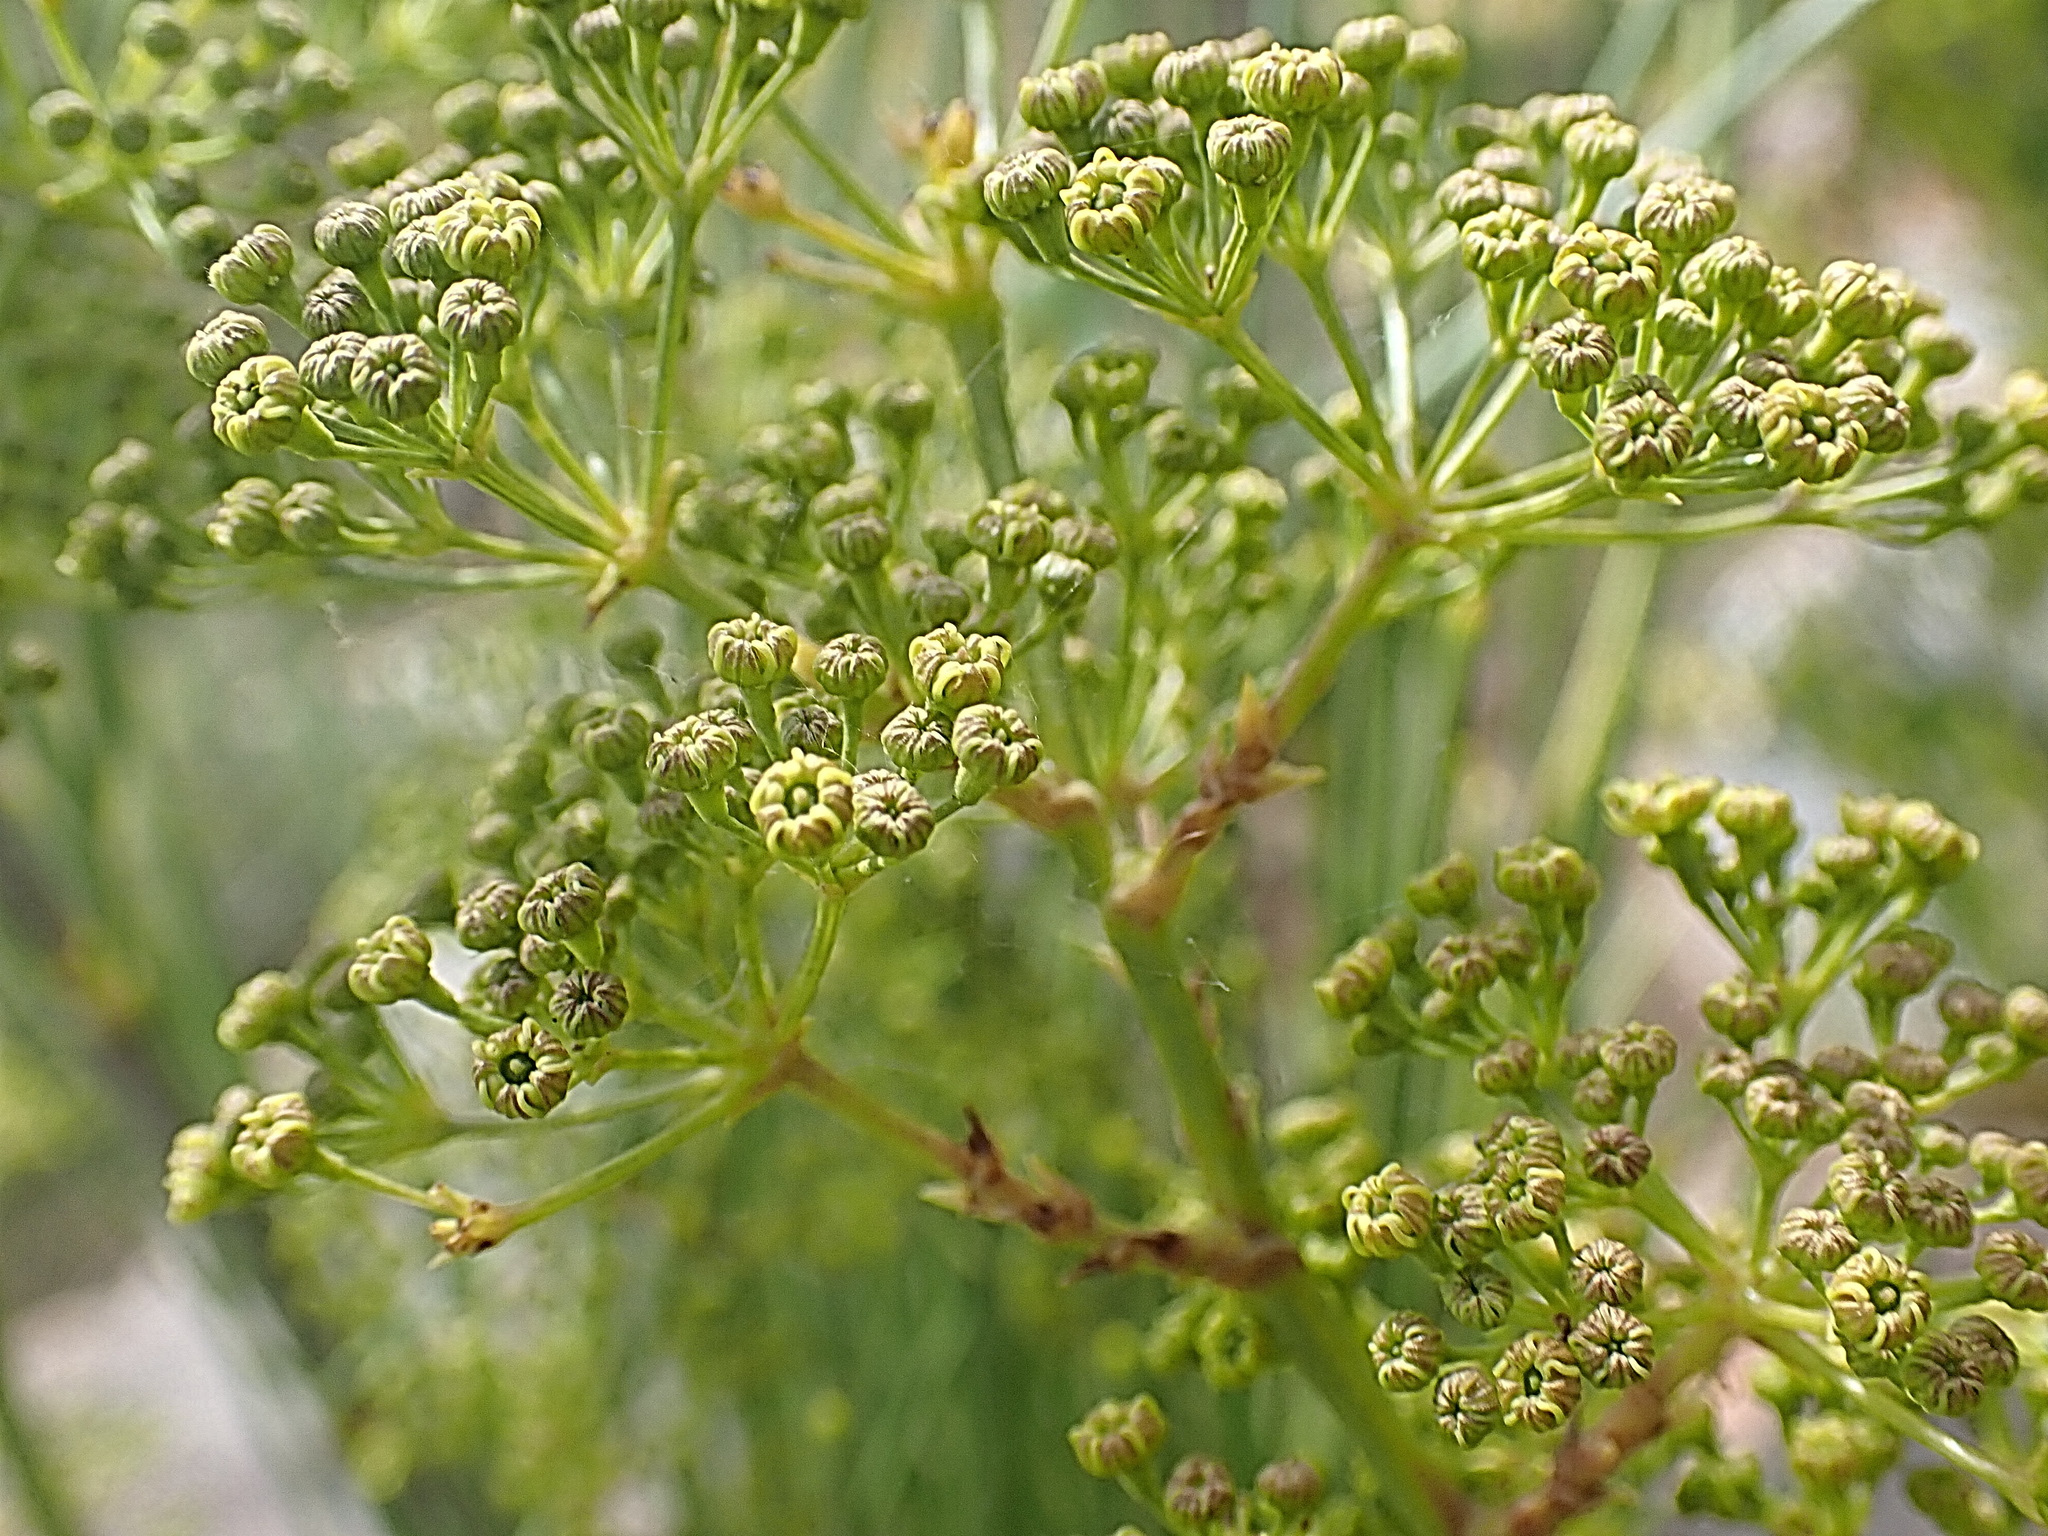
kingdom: Plantae
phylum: Tracheophyta
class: Magnoliopsida
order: Apiales
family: Apiaceae
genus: Anginon
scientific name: Anginon difforme
